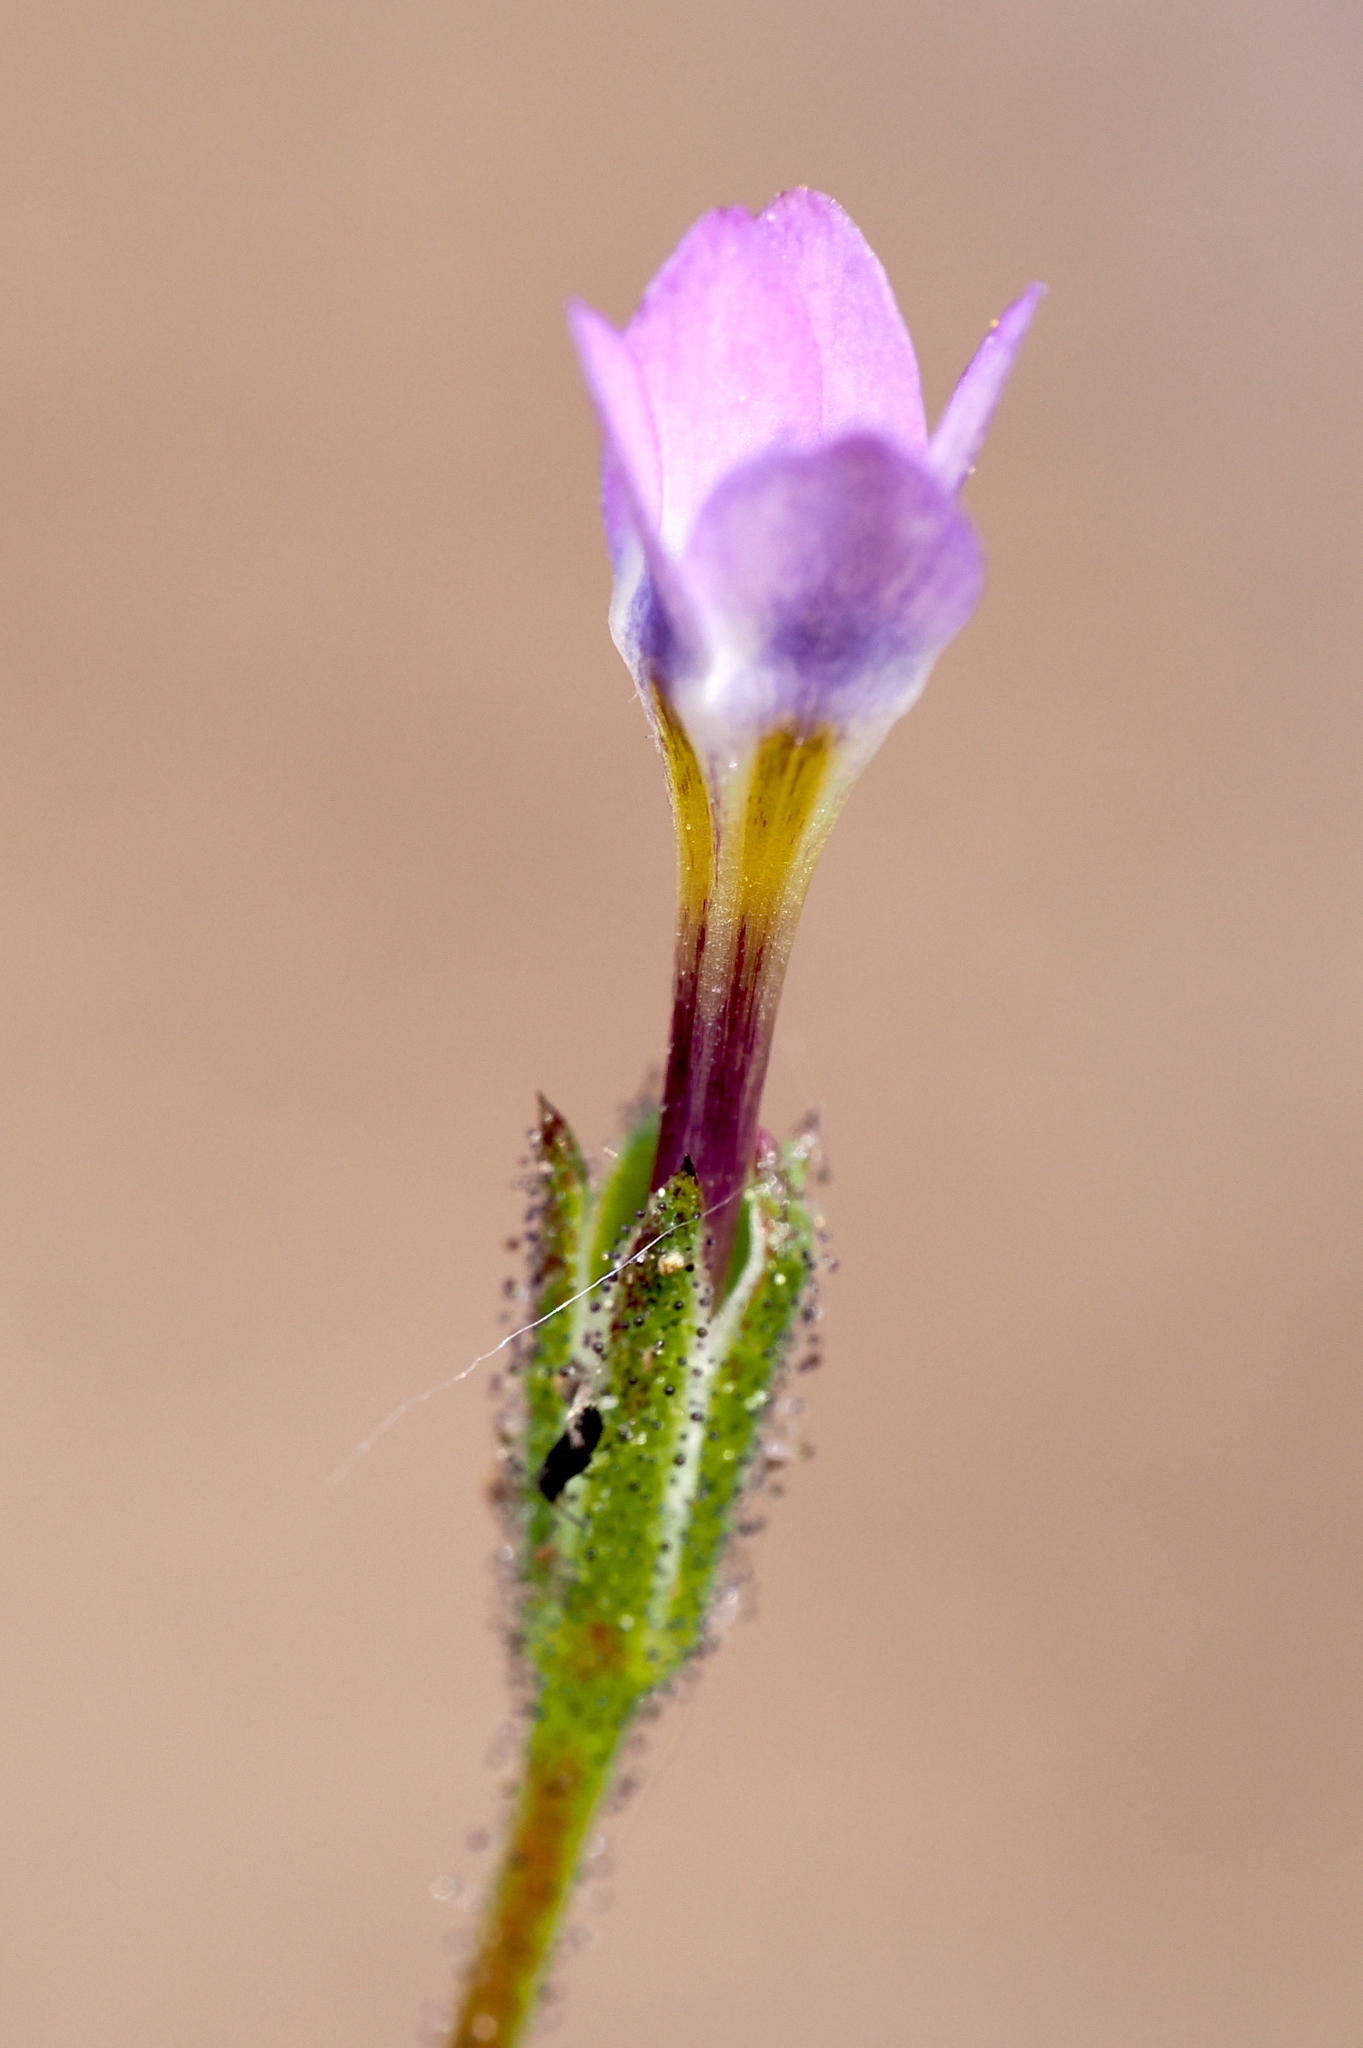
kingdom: Plantae
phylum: Tracheophyta
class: Magnoliopsida
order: Ericales
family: Polemoniaceae
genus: Gilia
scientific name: Gilia modocensis
